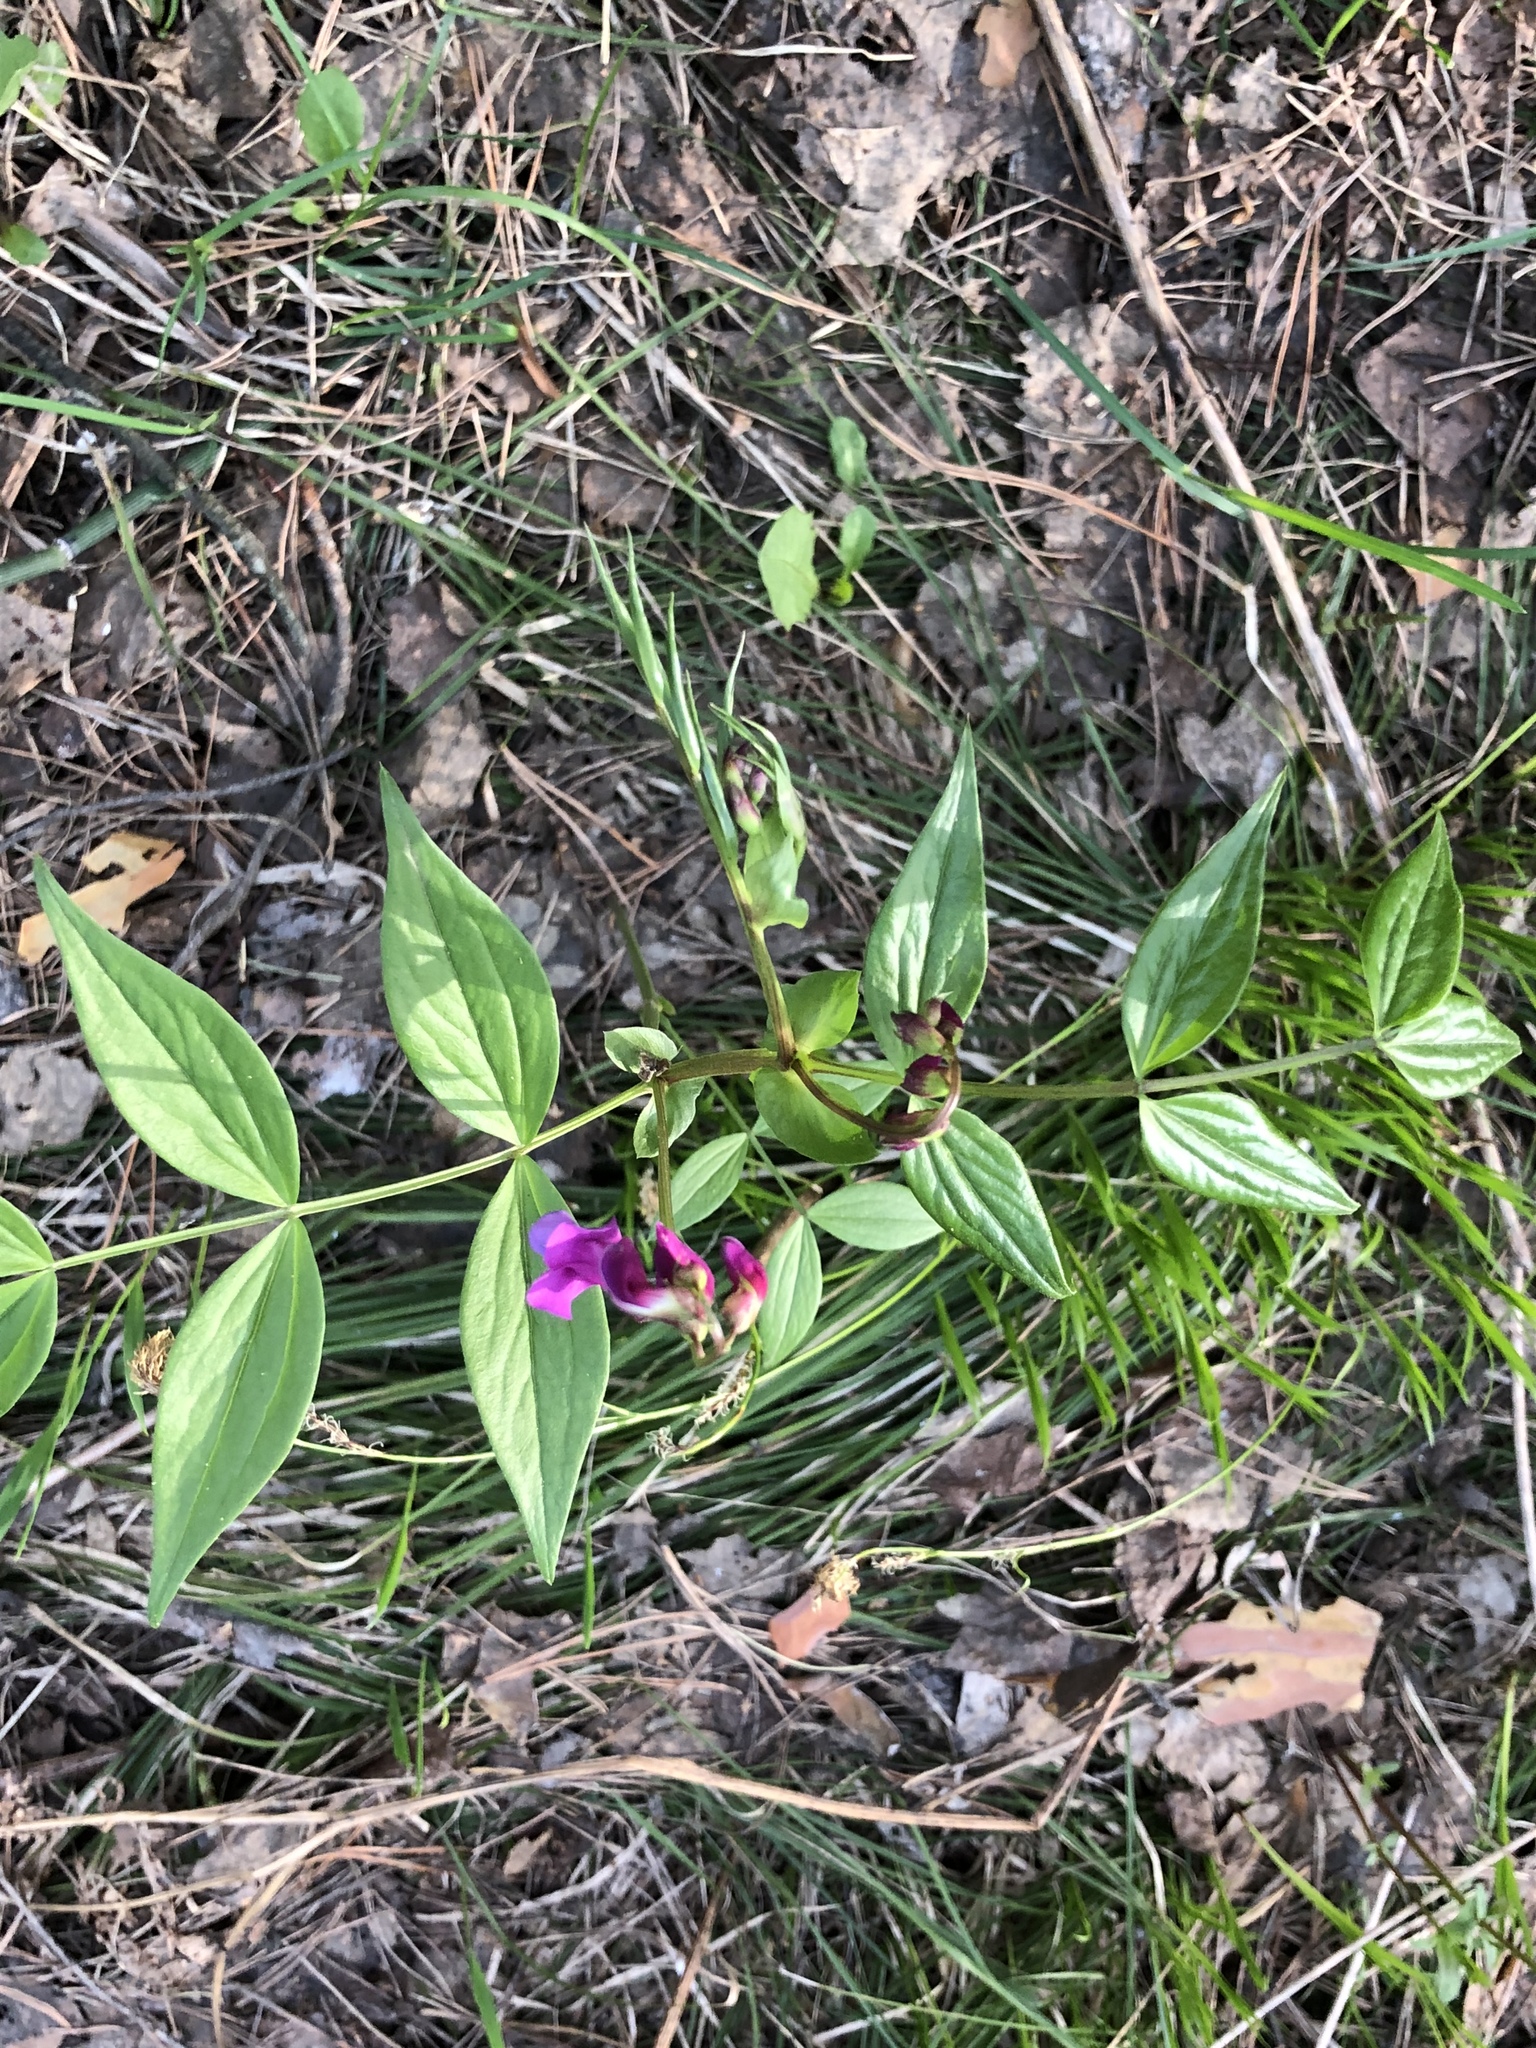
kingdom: Plantae
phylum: Tracheophyta
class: Magnoliopsida
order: Fabales
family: Fabaceae
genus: Lathyrus
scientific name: Lathyrus vernus
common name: Spring pea
